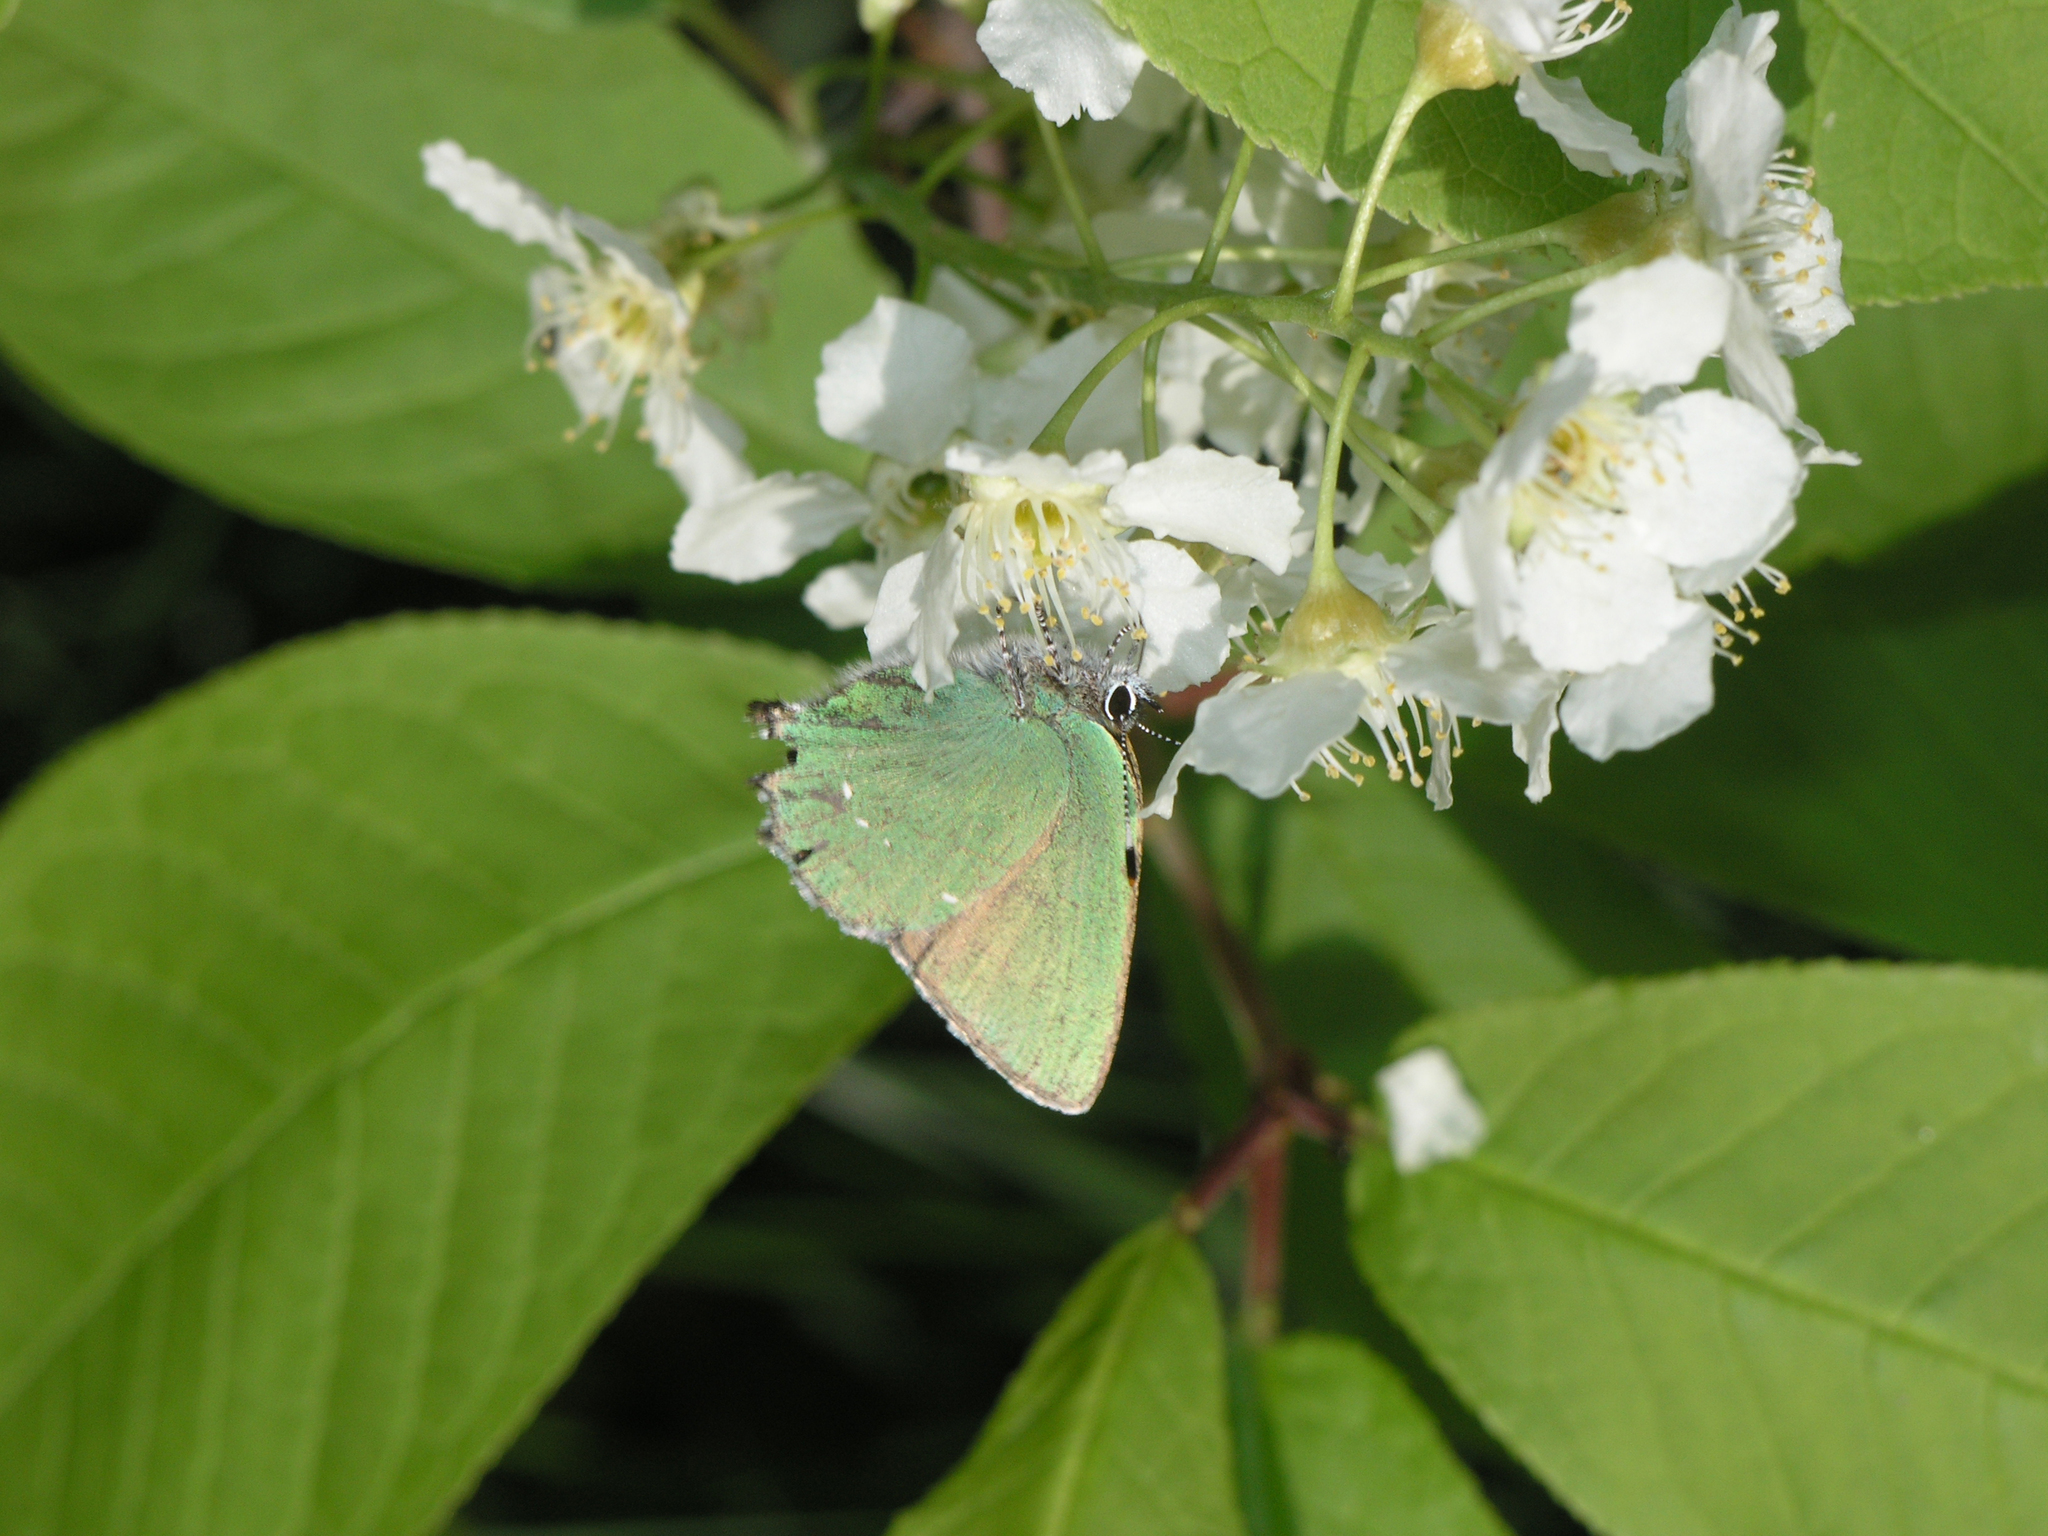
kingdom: Animalia
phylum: Arthropoda
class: Insecta
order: Lepidoptera
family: Lycaenidae
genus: Callophrys
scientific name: Callophrys rubi
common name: Green hairstreak
